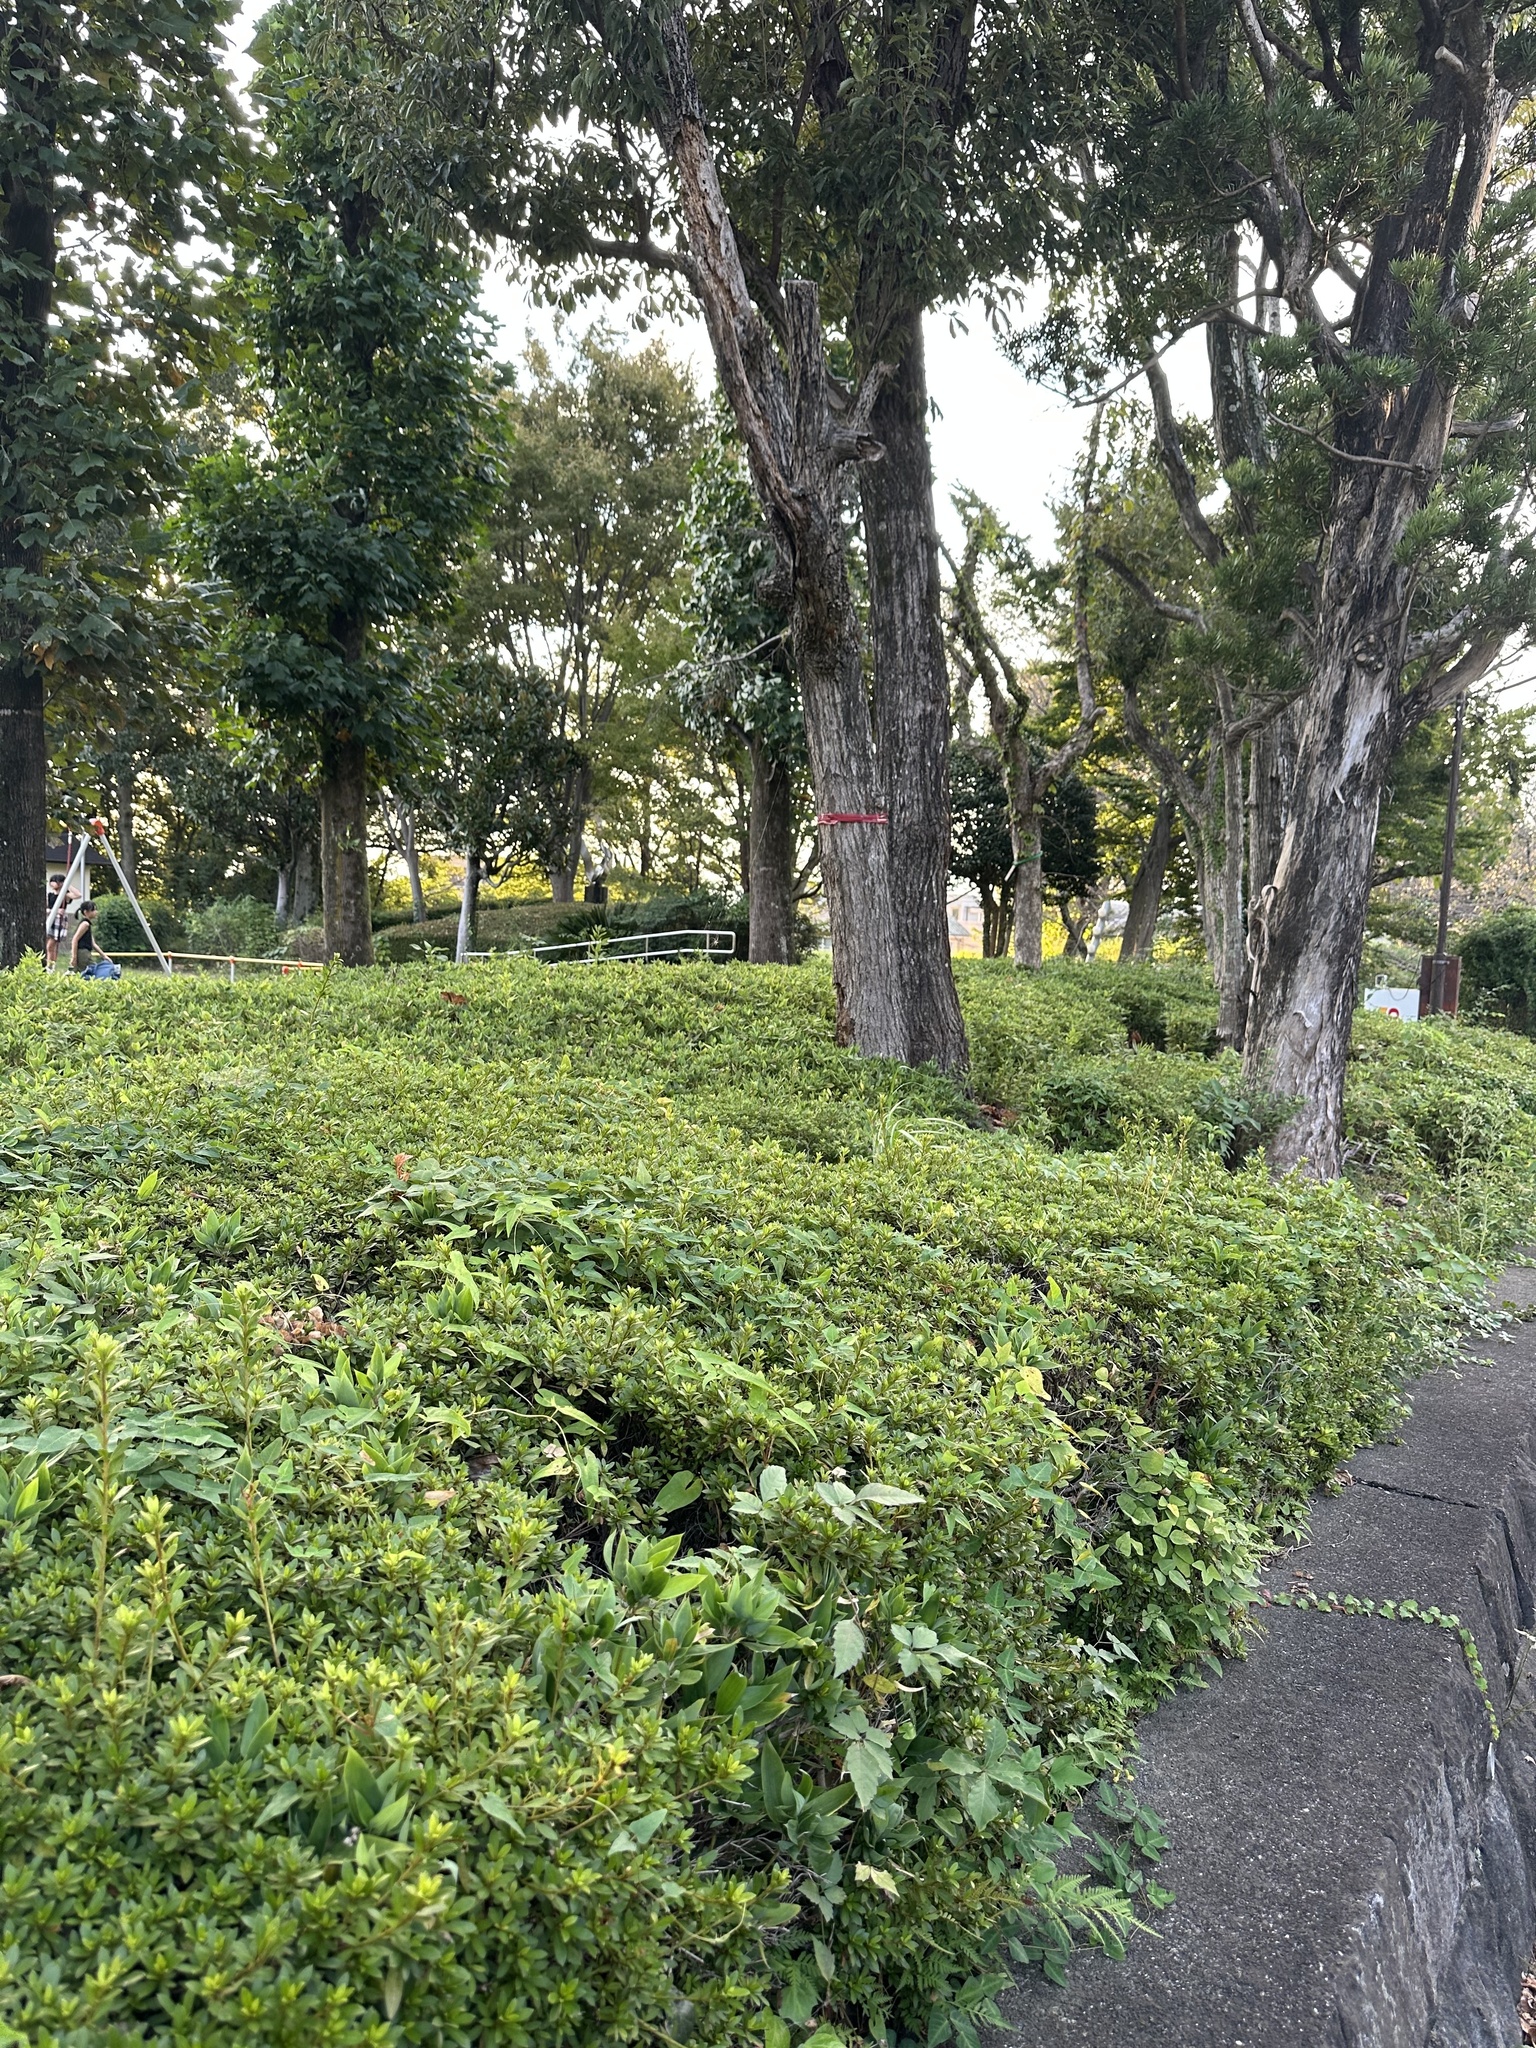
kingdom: Animalia
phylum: Arthropoda
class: Insecta
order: Orthoptera
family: Mogoplistidae
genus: Ornebius
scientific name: Ornebius kanetataki
